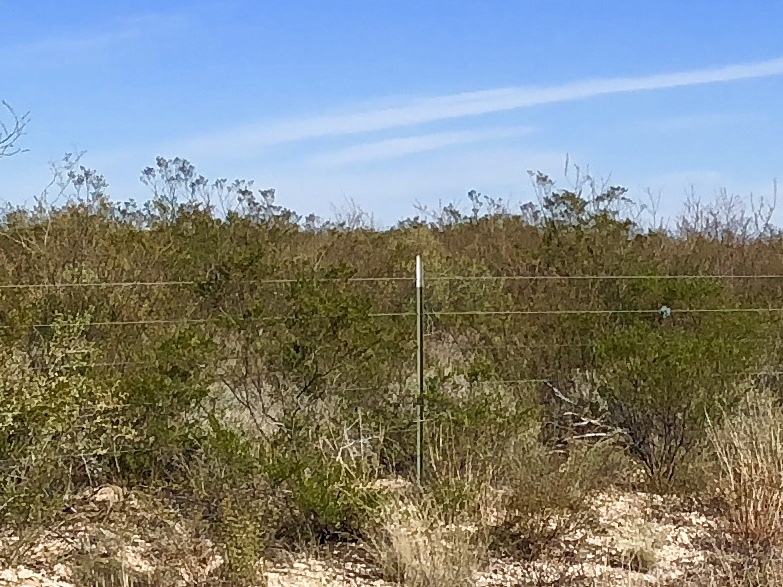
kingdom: Plantae
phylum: Tracheophyta
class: Magnoliopsida
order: Zygophyllales
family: Zygophyllaceae
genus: Larrea
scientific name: Larrea tridentata
